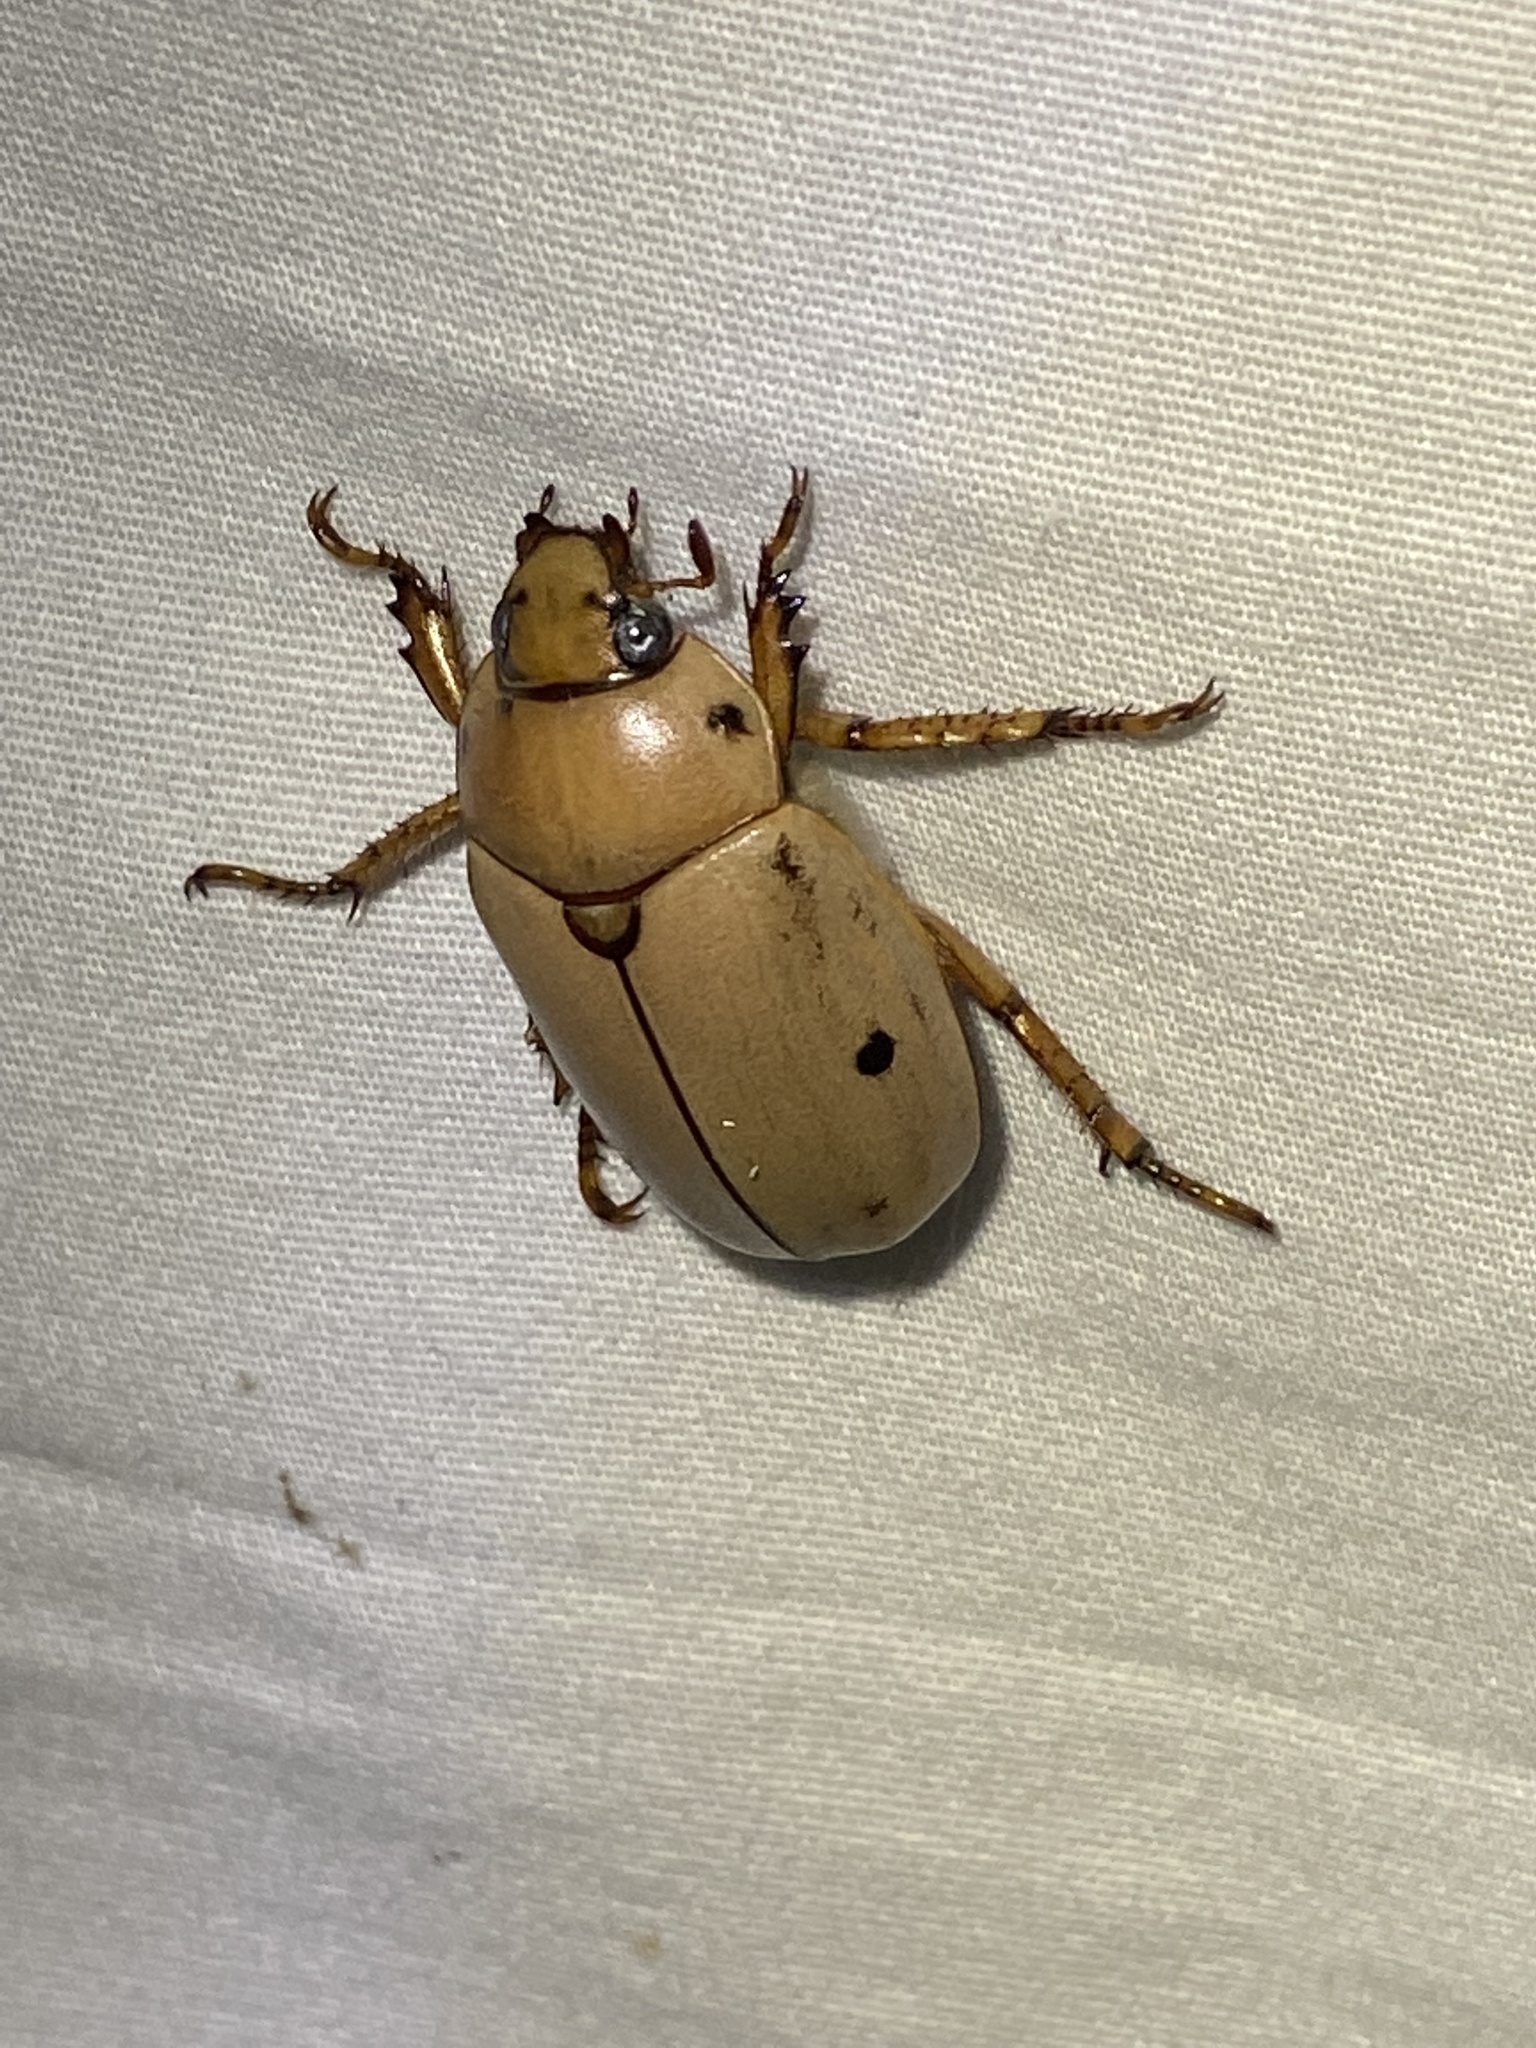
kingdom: Animalia
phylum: Arthropoda
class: Insecta
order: Coleoptera
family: Scarabaeidae
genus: Pelidnota
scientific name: Pelidnota punctata
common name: Grapevine beetle
